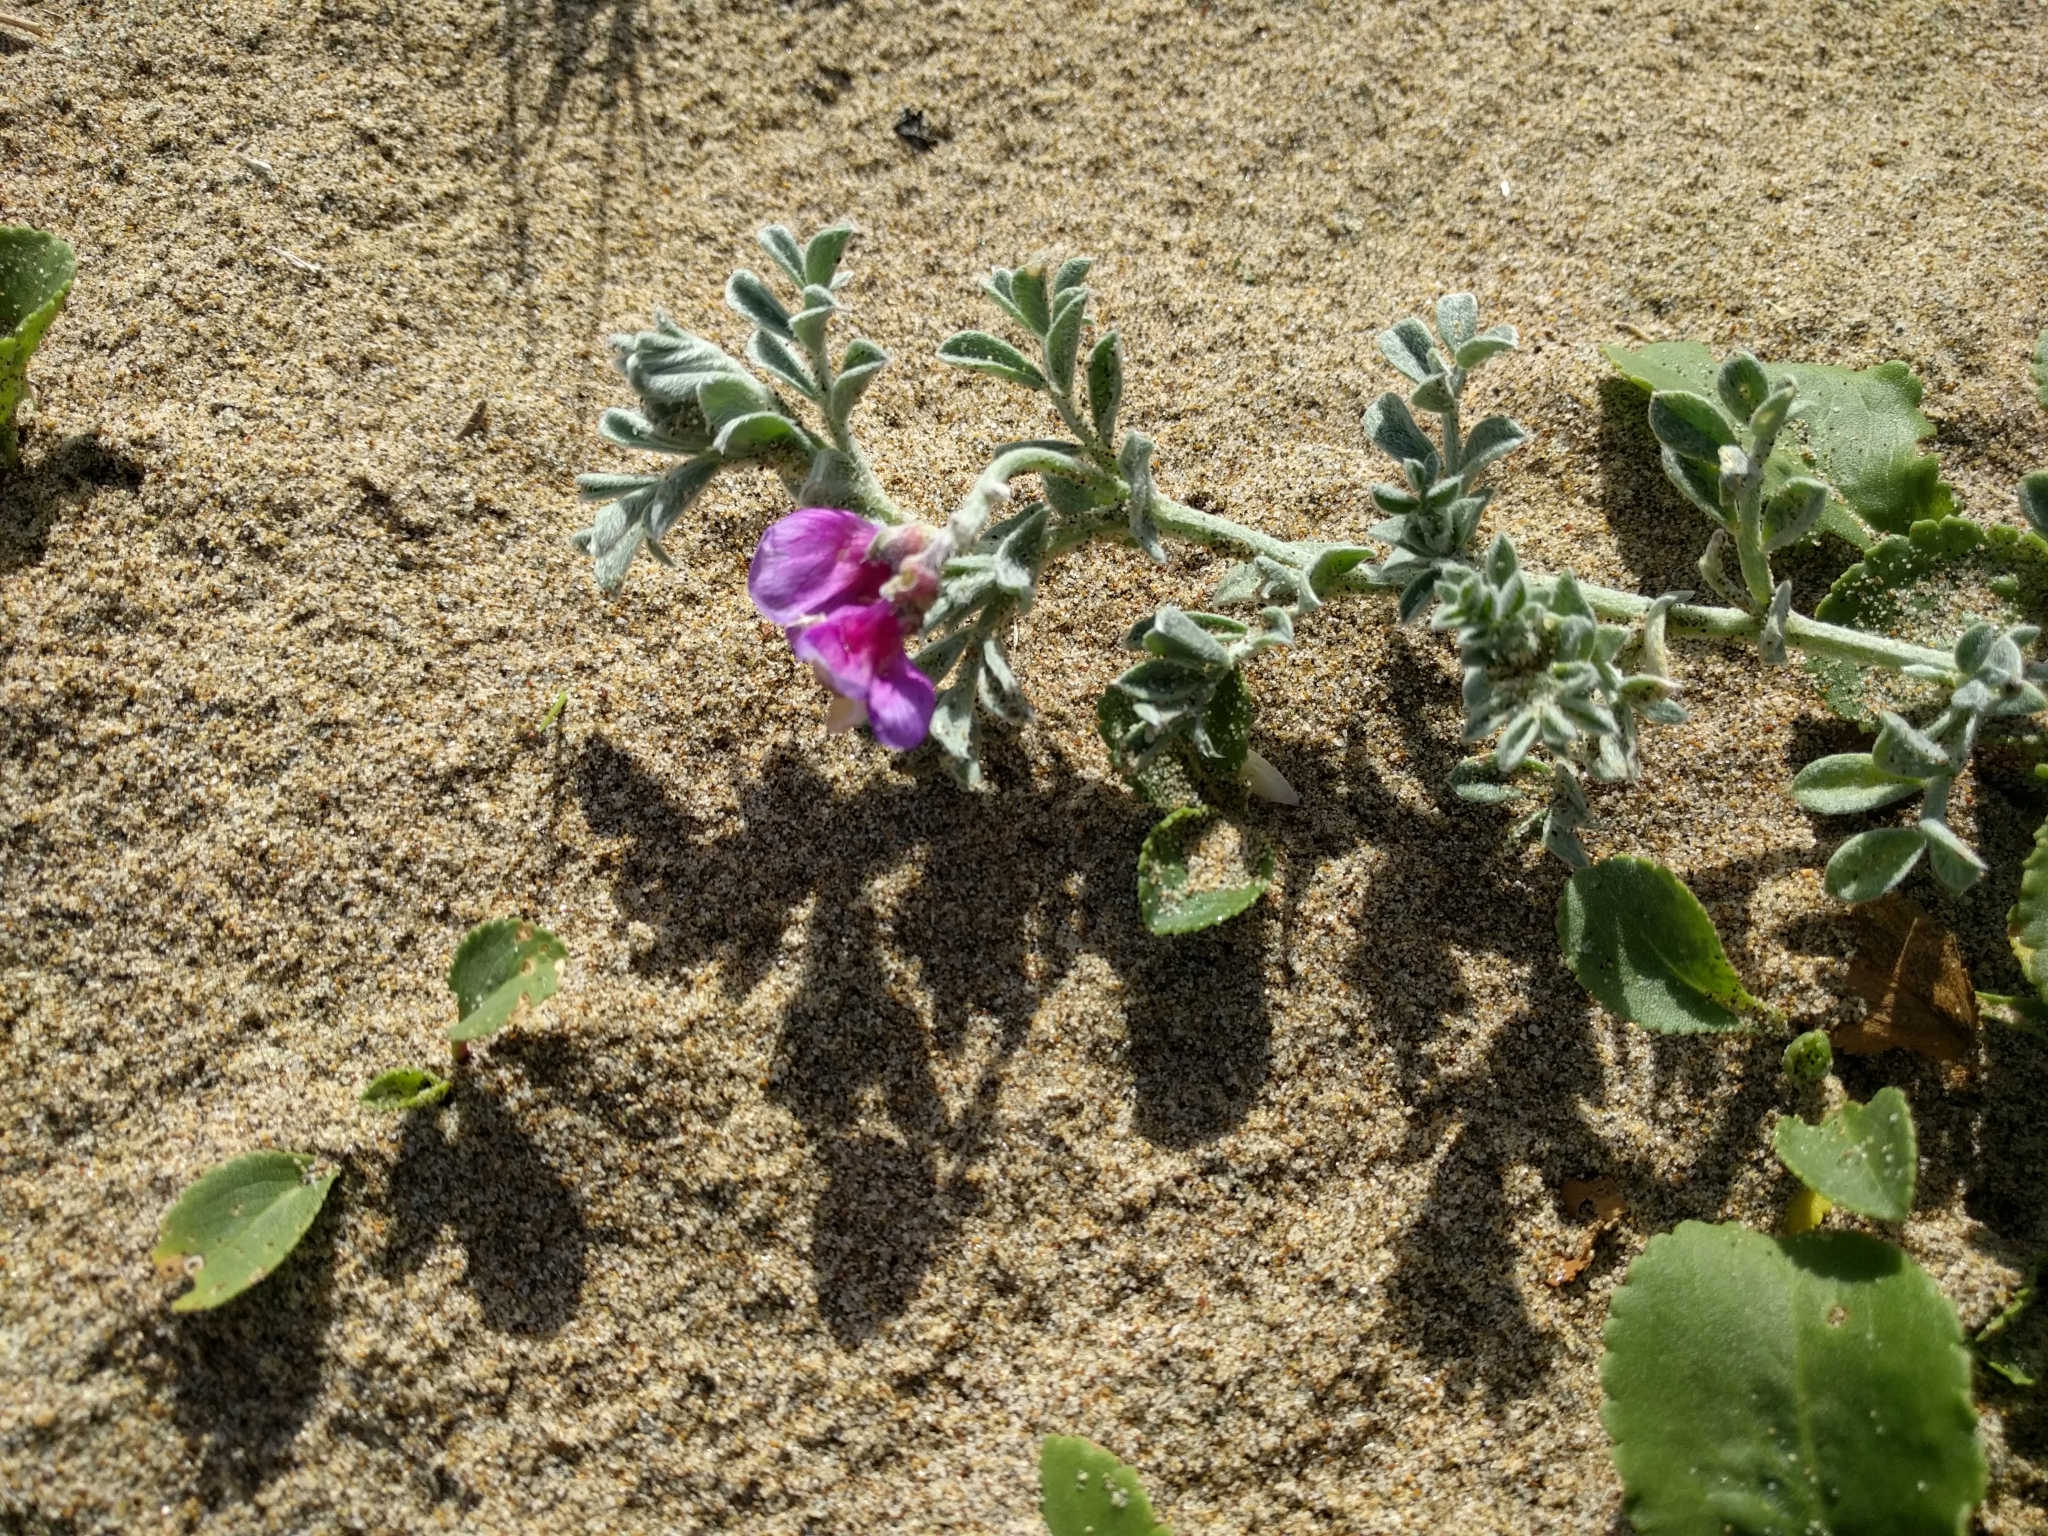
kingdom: Plantae
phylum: Tracheophyta
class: Magnoliopsida
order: Fabales
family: Fabaceae
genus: Lathyrus
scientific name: Lathyrus littoralis
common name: Dune sweet pea
